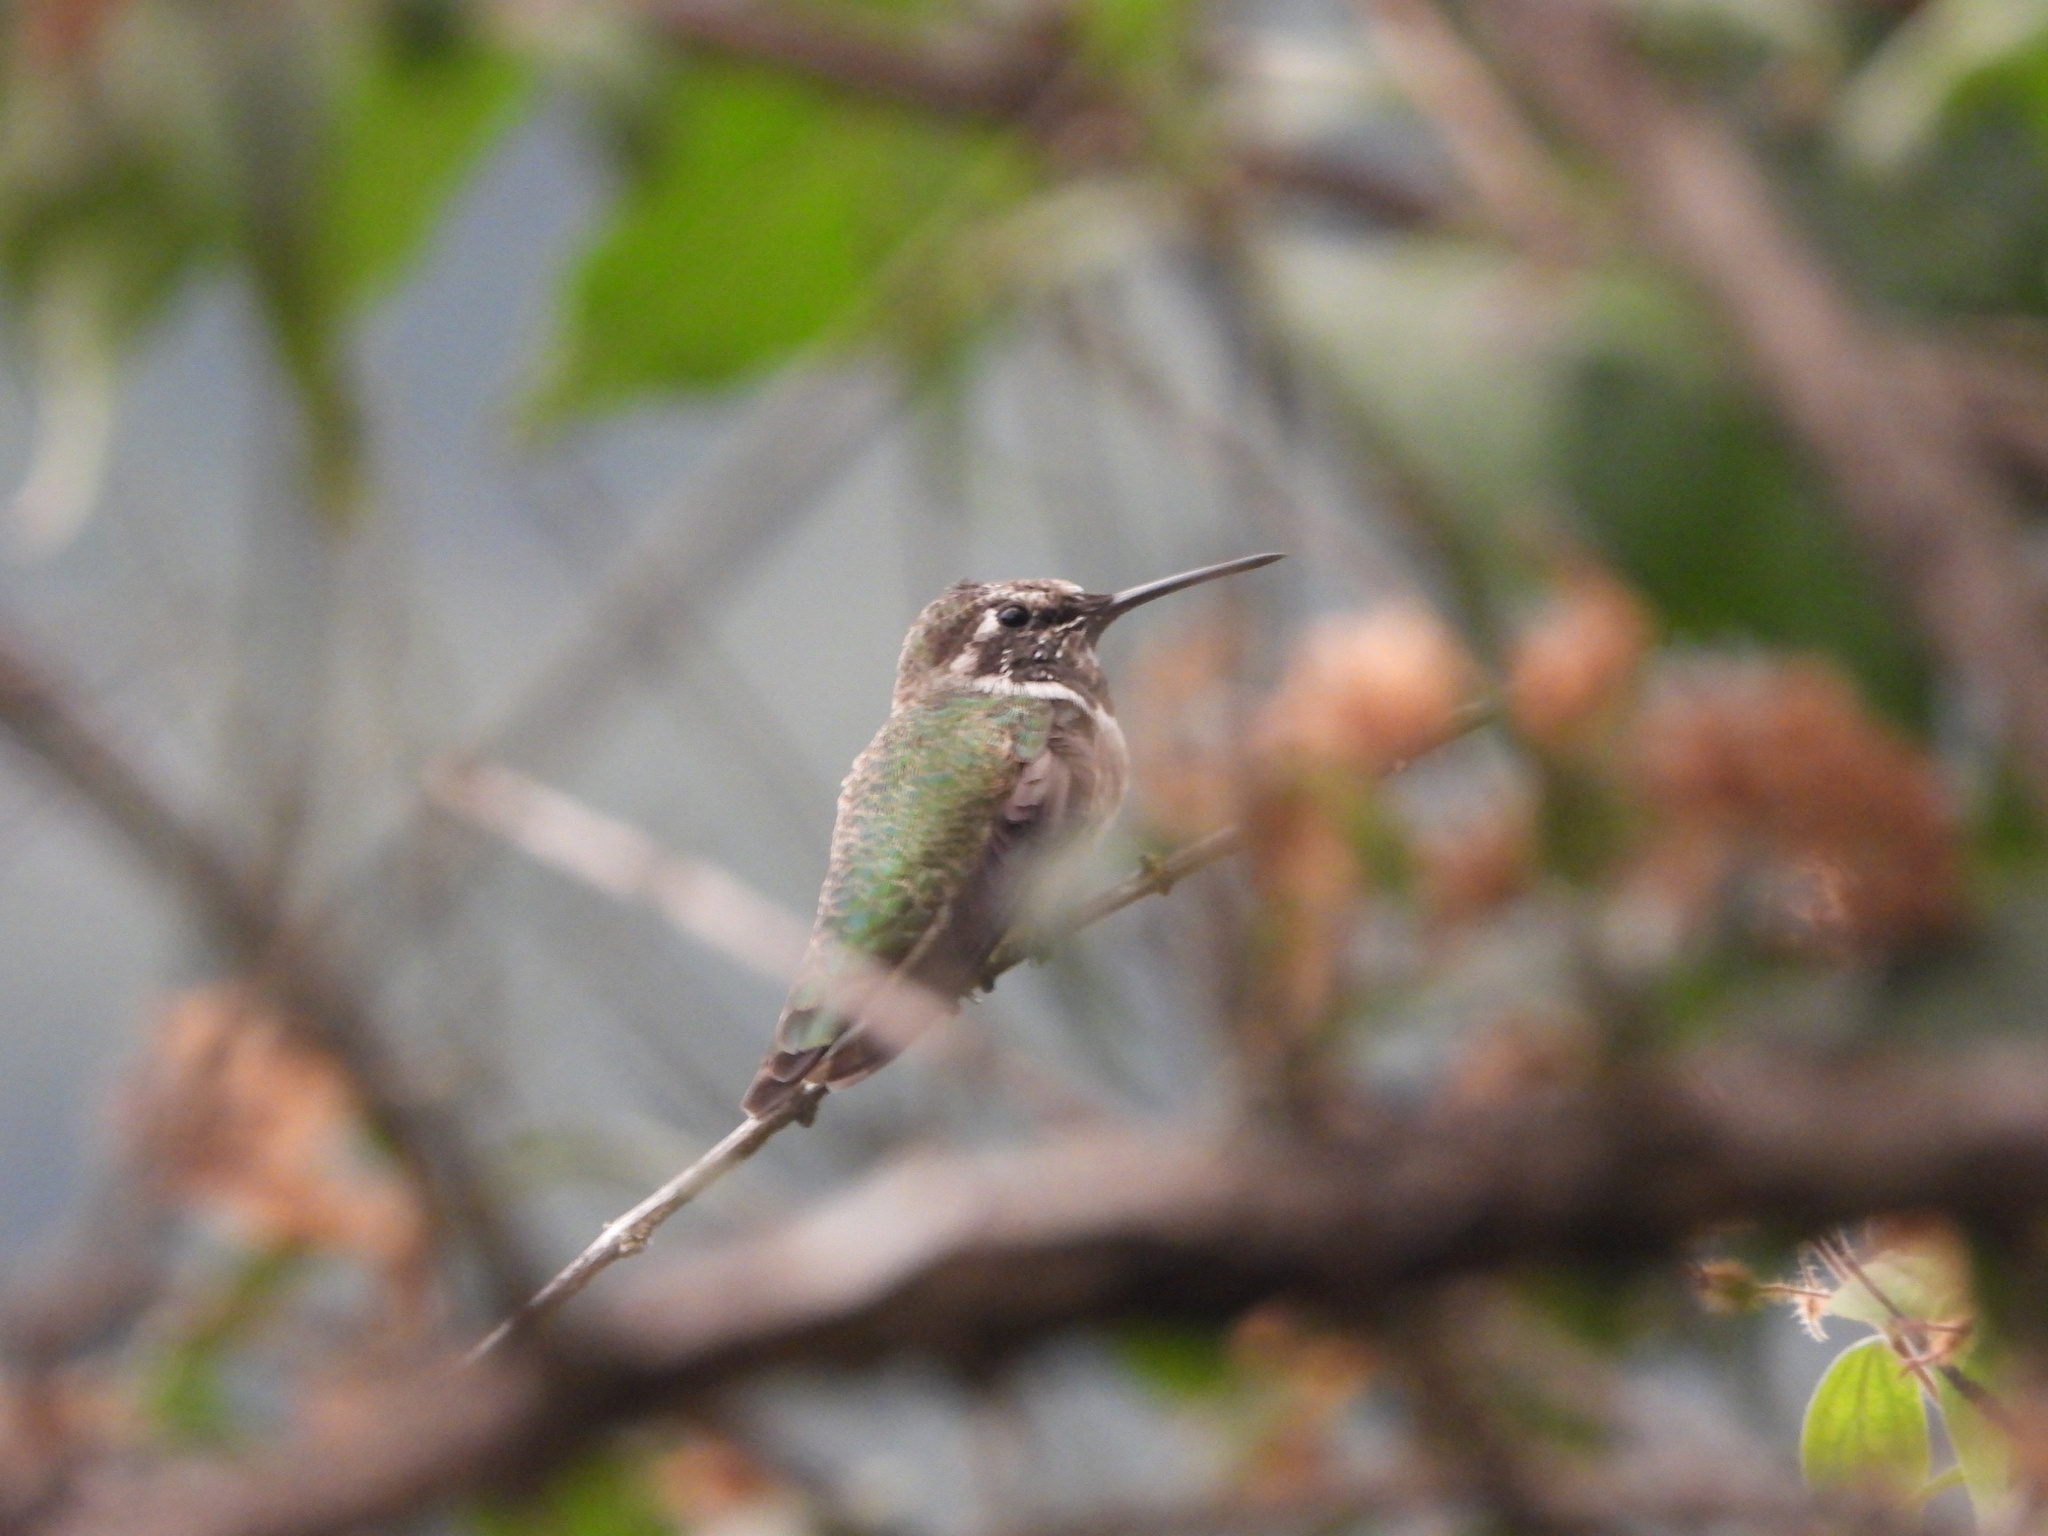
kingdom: Animalia
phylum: Chordata
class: Aves
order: Apodiformes
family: Trochilidae
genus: Calypte
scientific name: Calypte anna
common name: Anna's hummingbird
